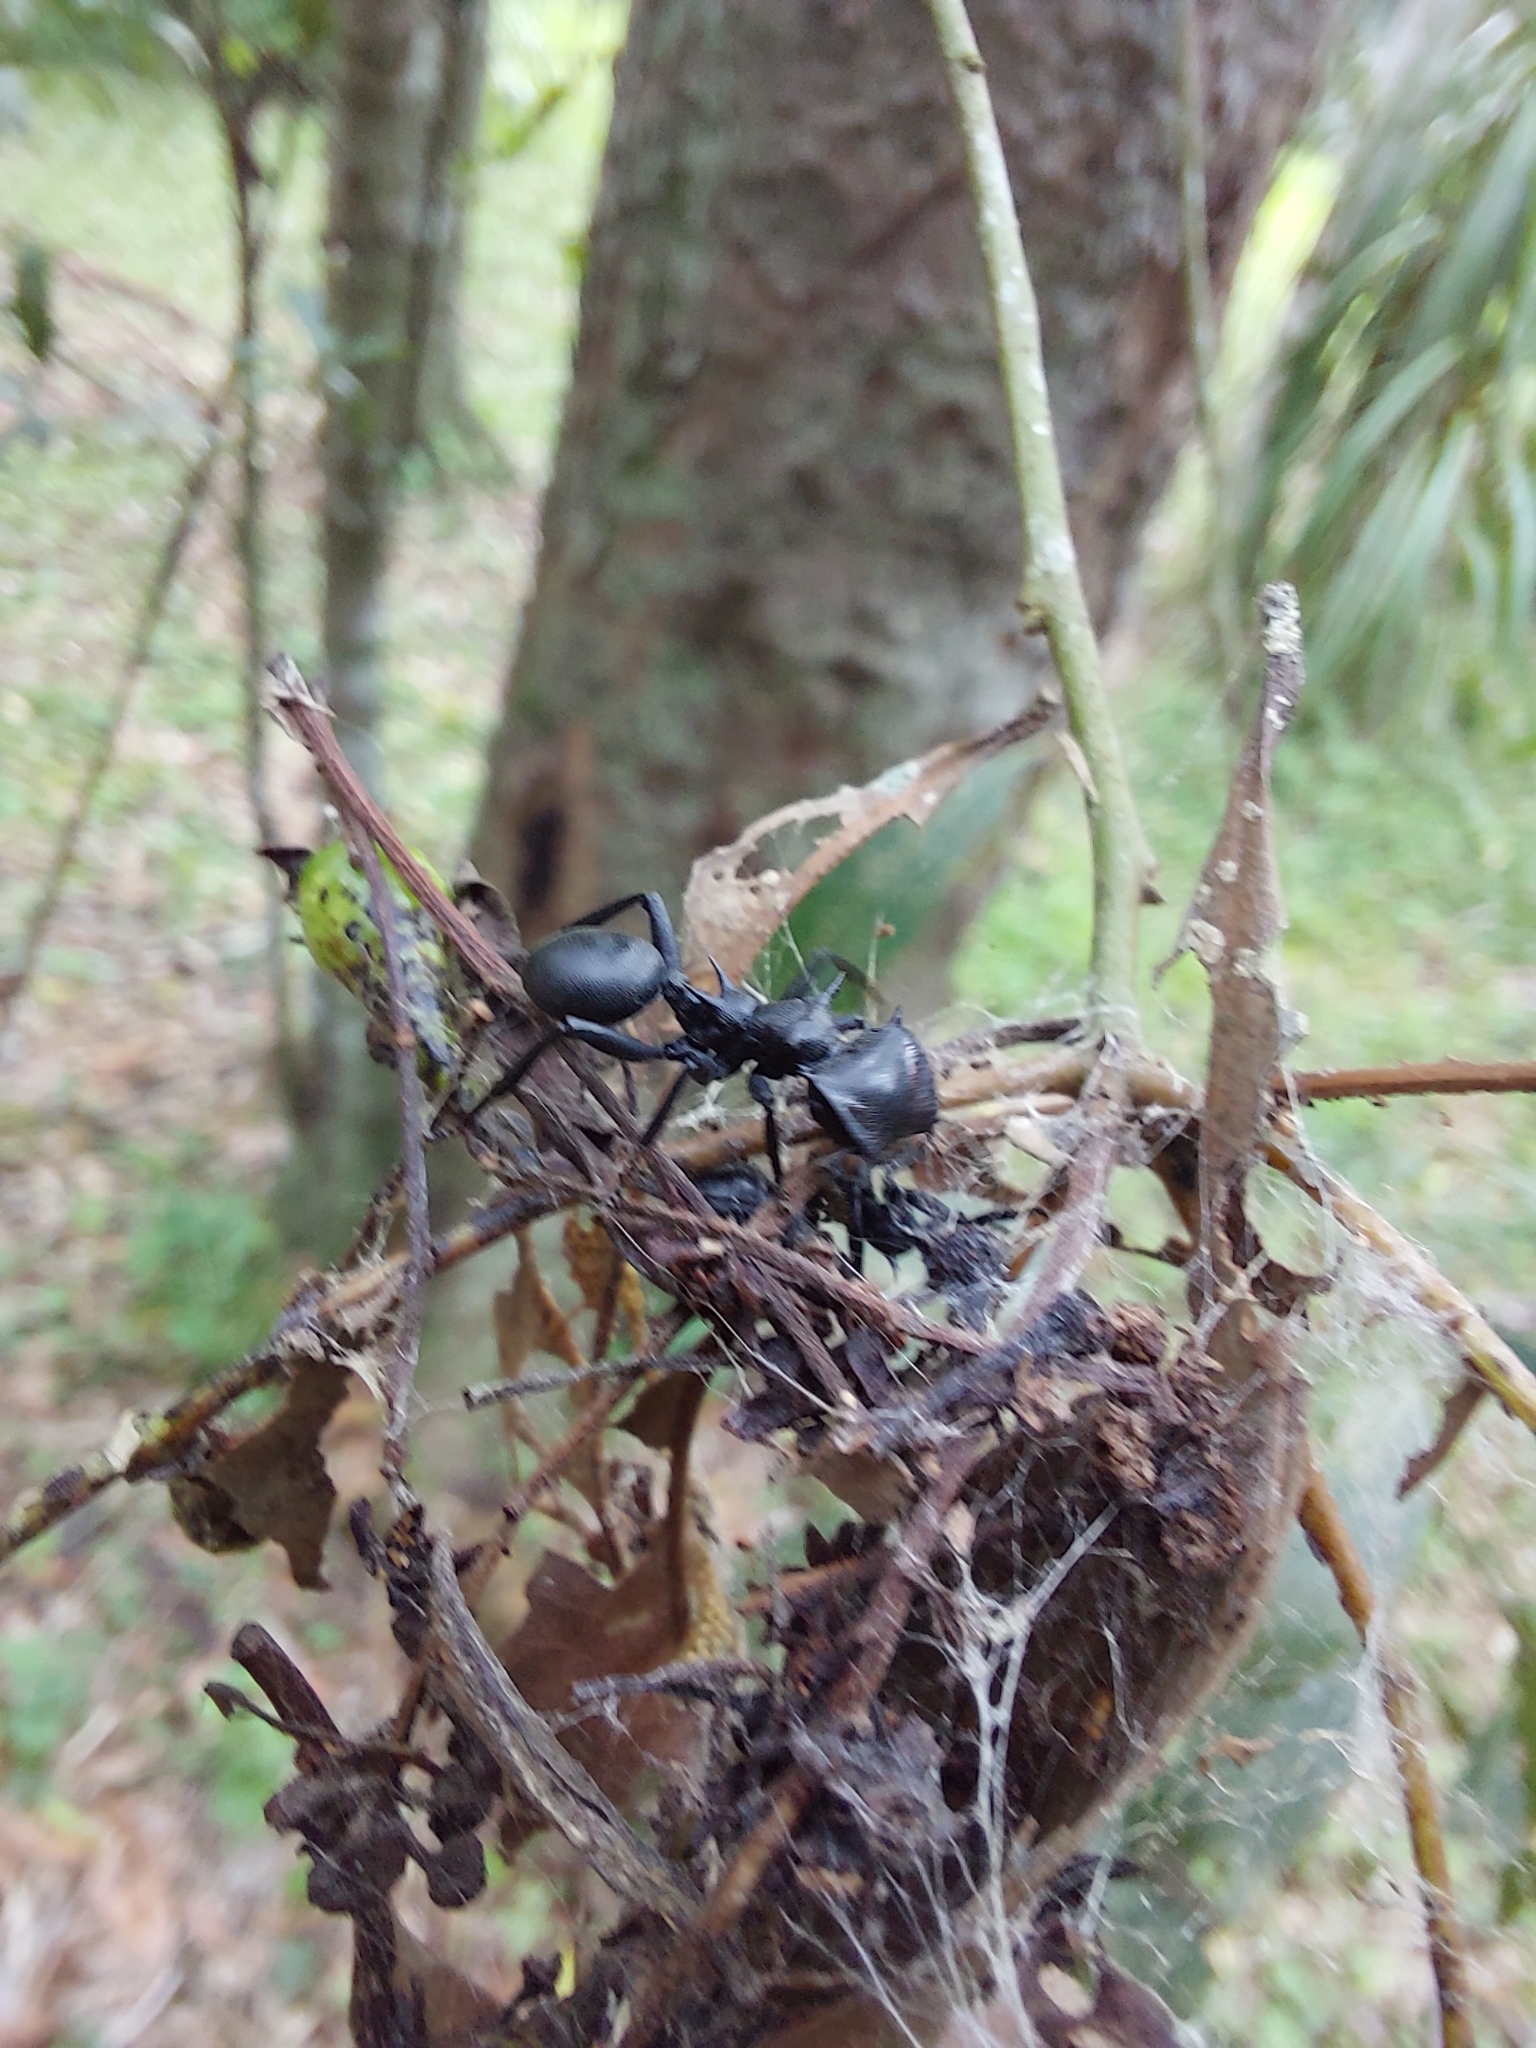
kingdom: Animalia
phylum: Arthropoda
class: Insecta
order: Hymenoptera
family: Formicidae
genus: Cephalotes
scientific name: Cephalotes atratus
